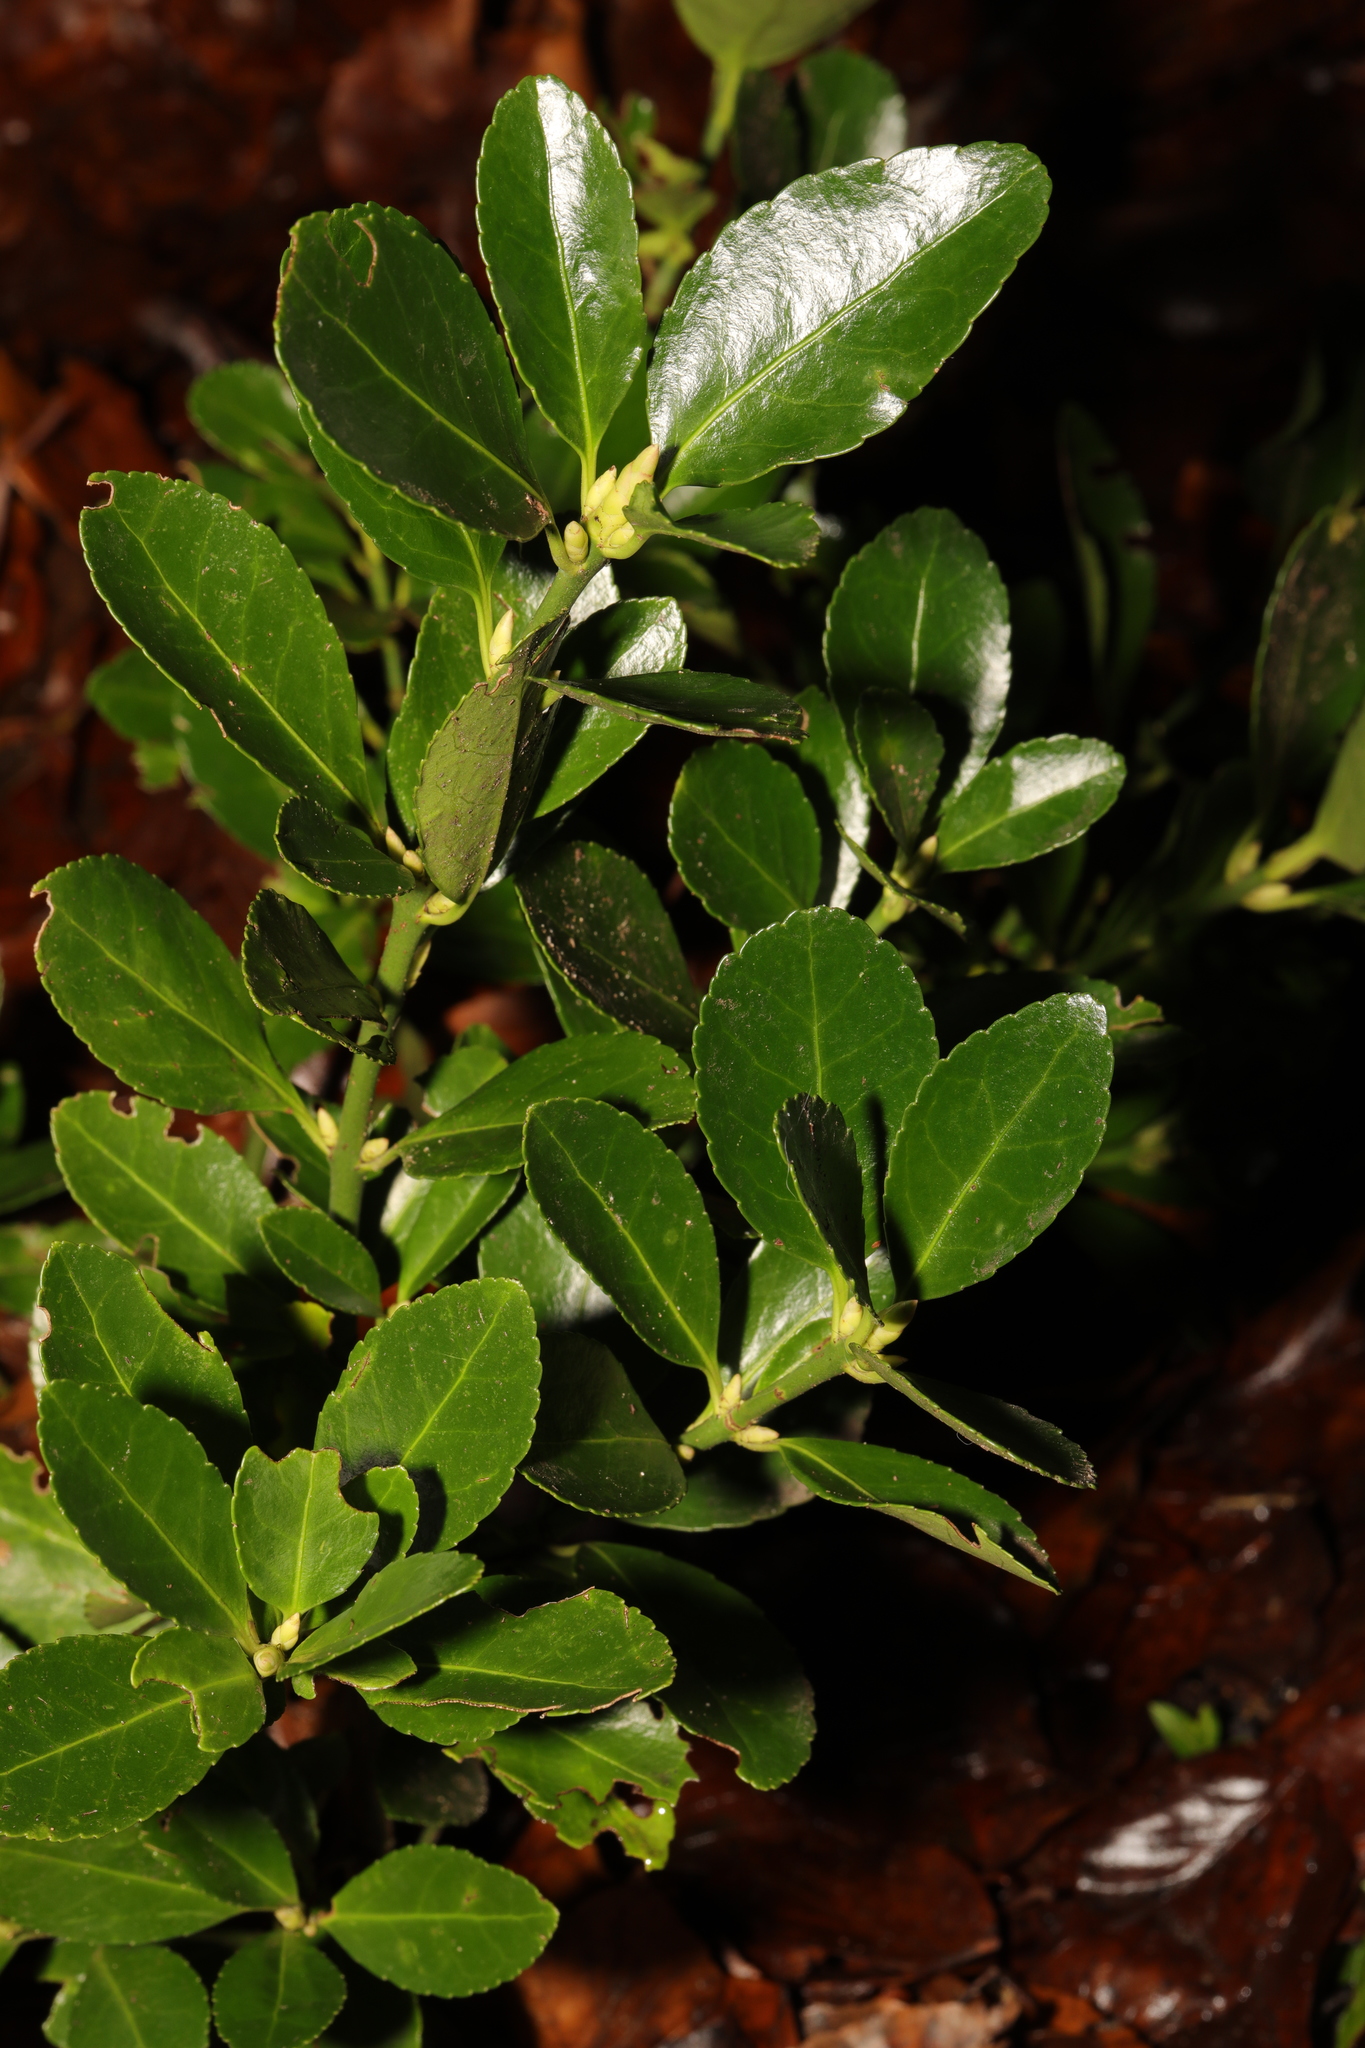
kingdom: Plantae
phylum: Tracheophyta
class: Magnoliopsida
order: Celastrales
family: Celastraceae
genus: Euonymus
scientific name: Euonymus japonicus
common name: Japanese spindletree
